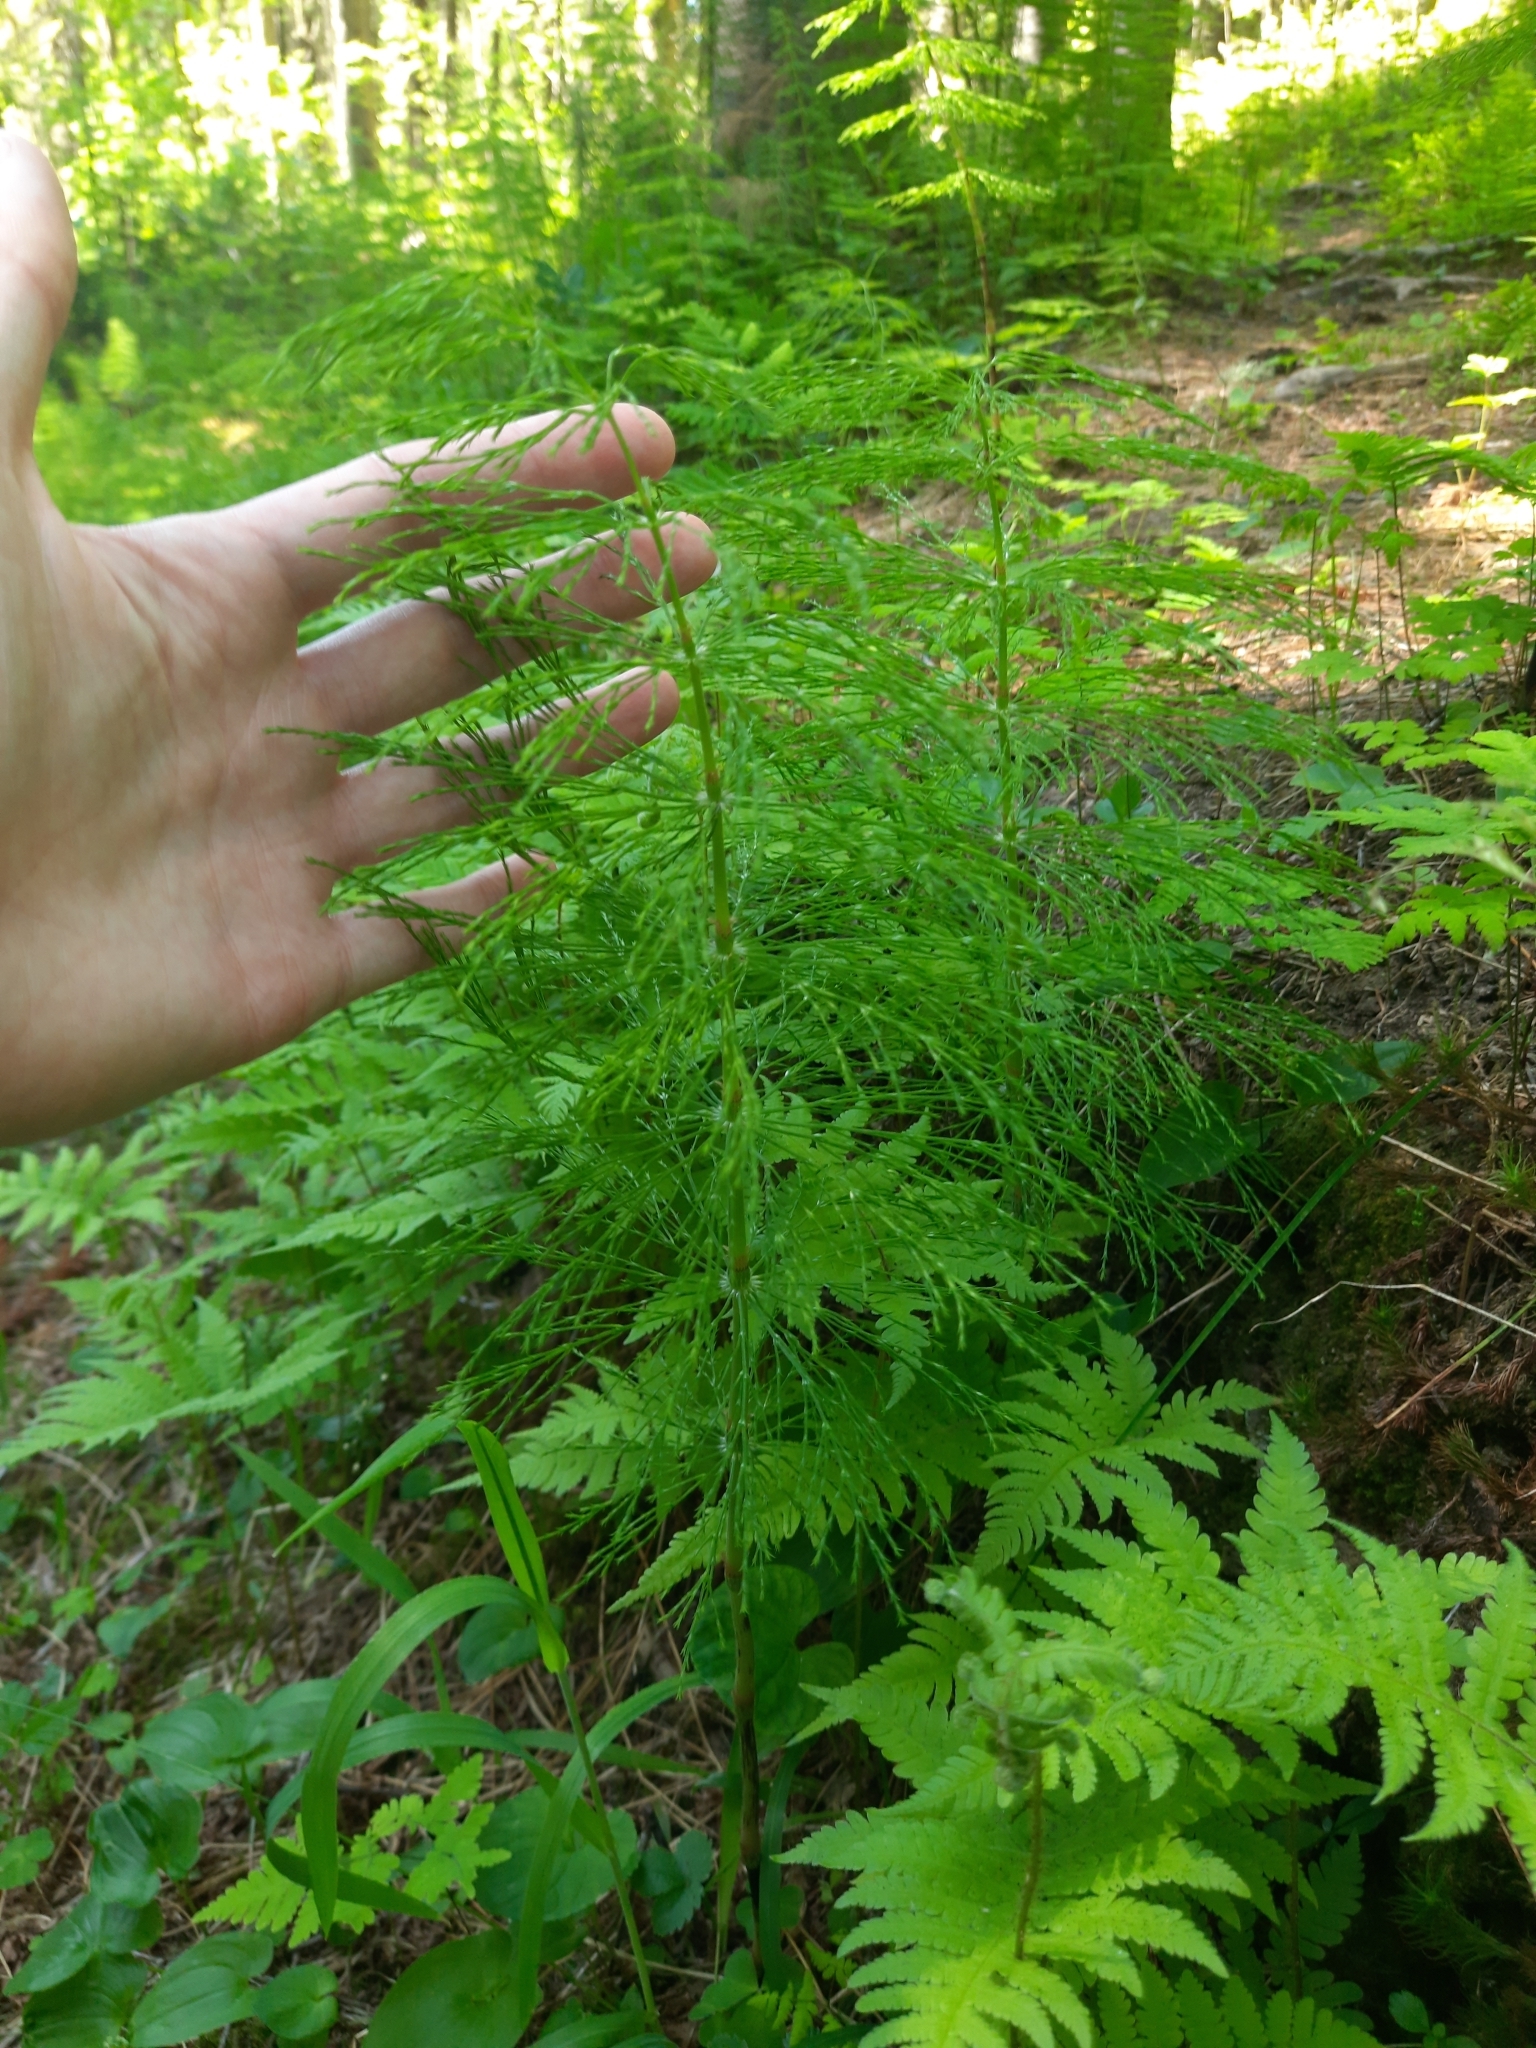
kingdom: Plantae
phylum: Tracheophyta
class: Polypodiopsida
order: Equisetales
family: Equisetaceae
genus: Equisetum
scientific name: Equisetum sylvaticum
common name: Wood horsetail
